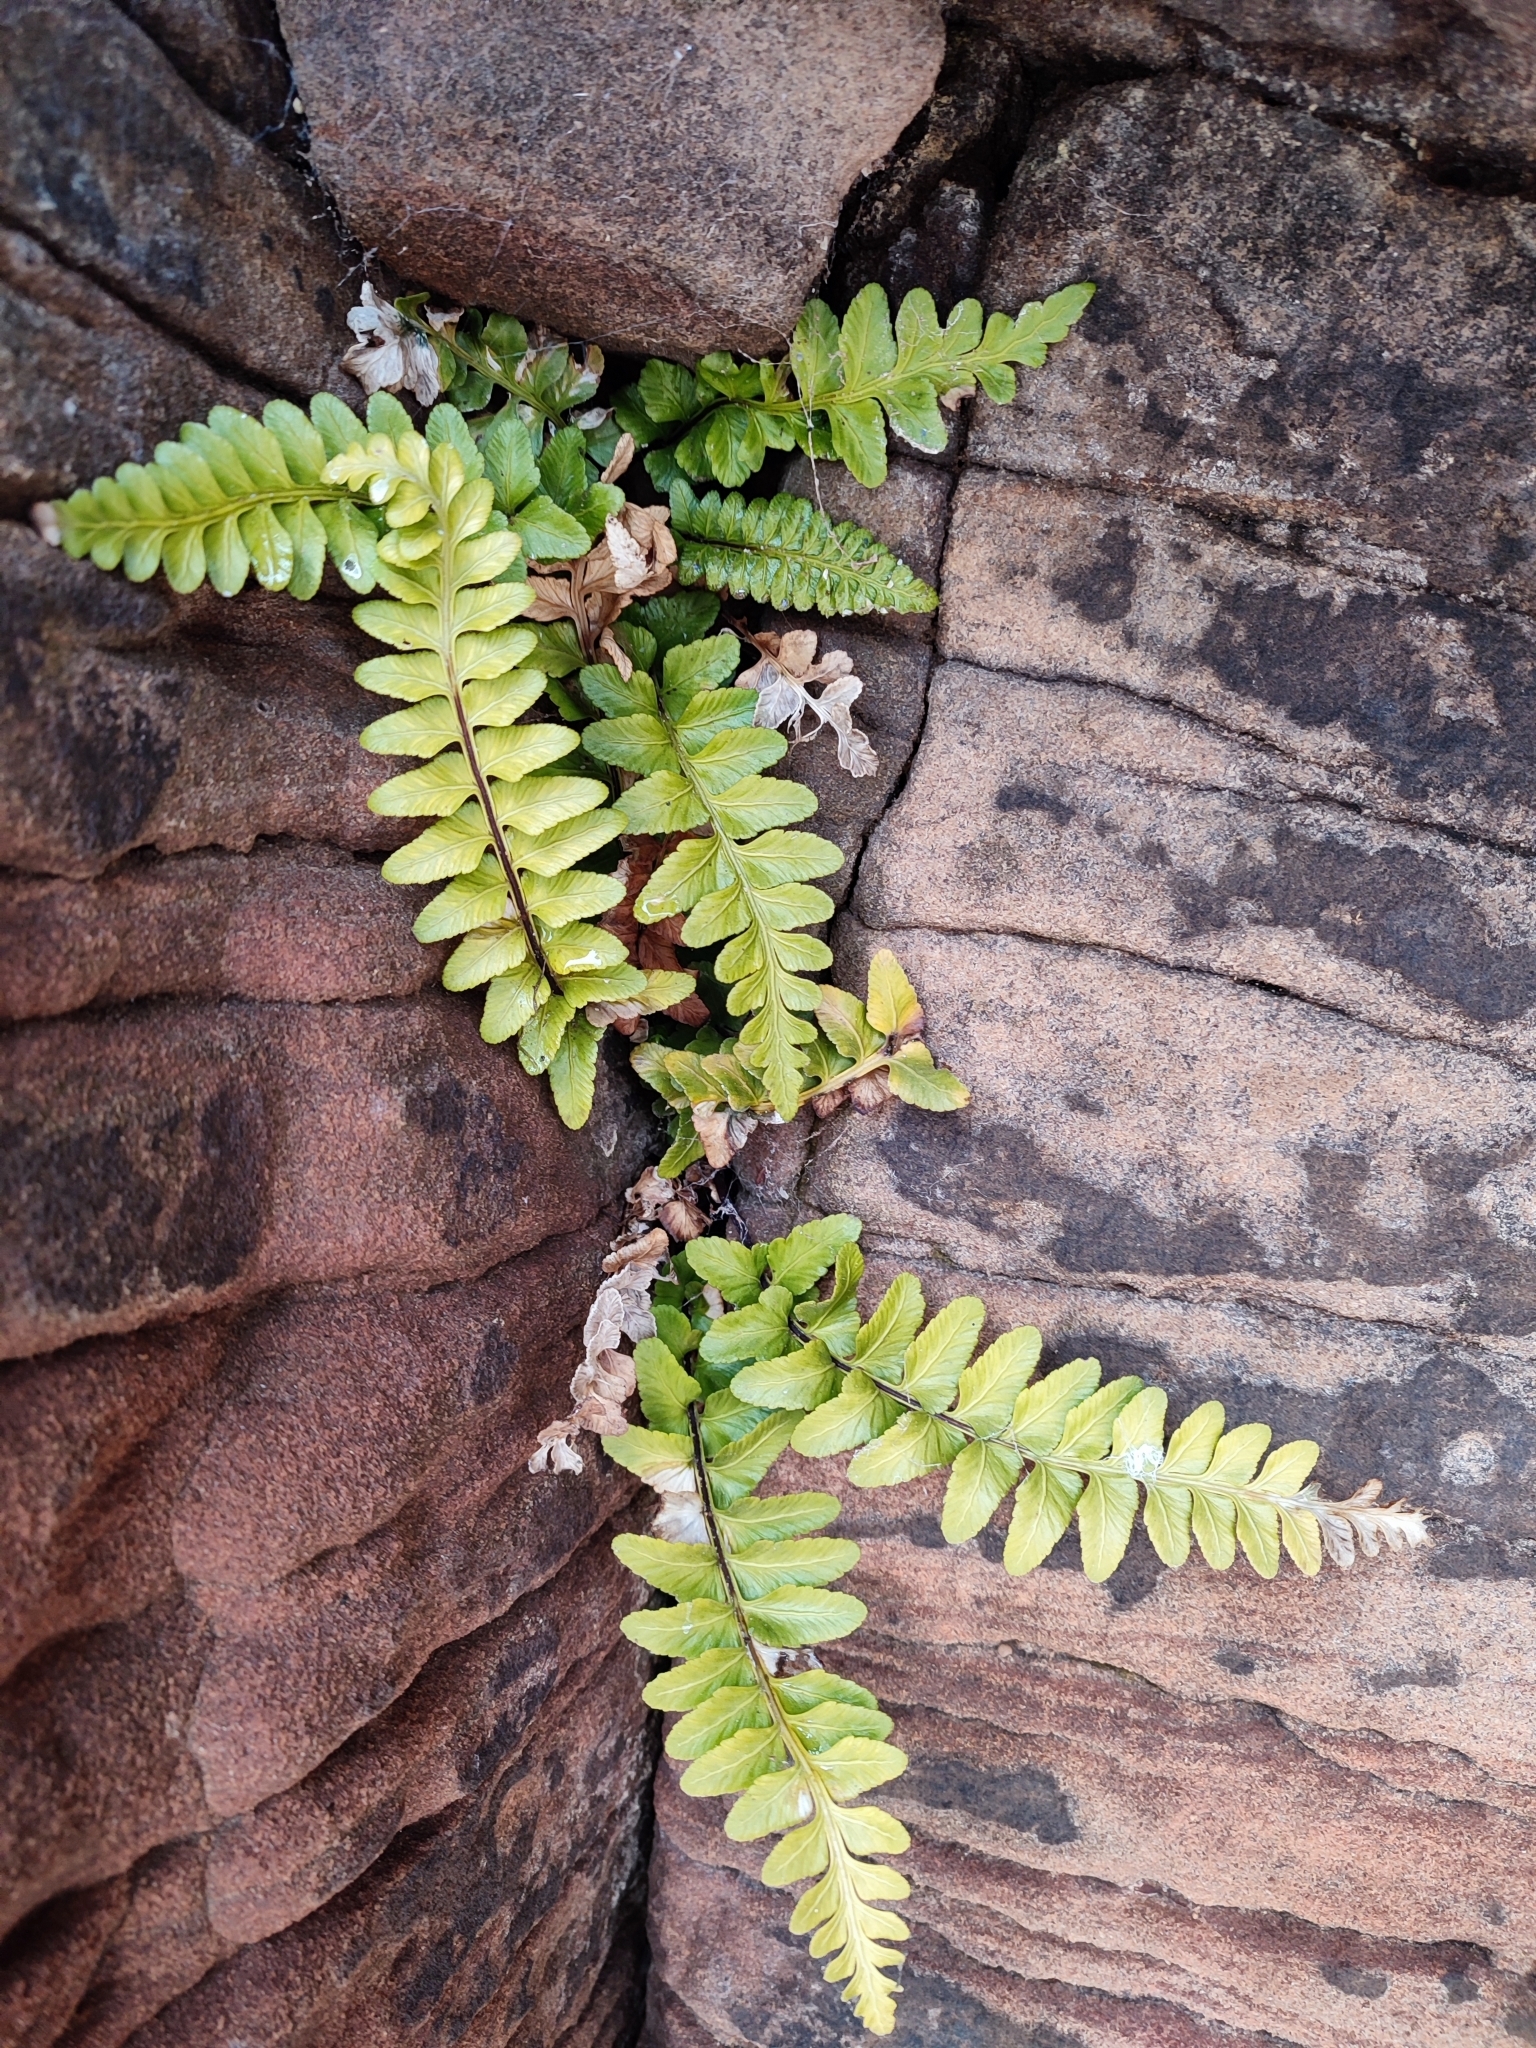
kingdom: Plantae
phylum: Tracheophyta
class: Polypodiopsida
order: Polypodiales
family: Aspleniaceae
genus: Asplenium
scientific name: Asplenium marinum
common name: Sea spleenwort
